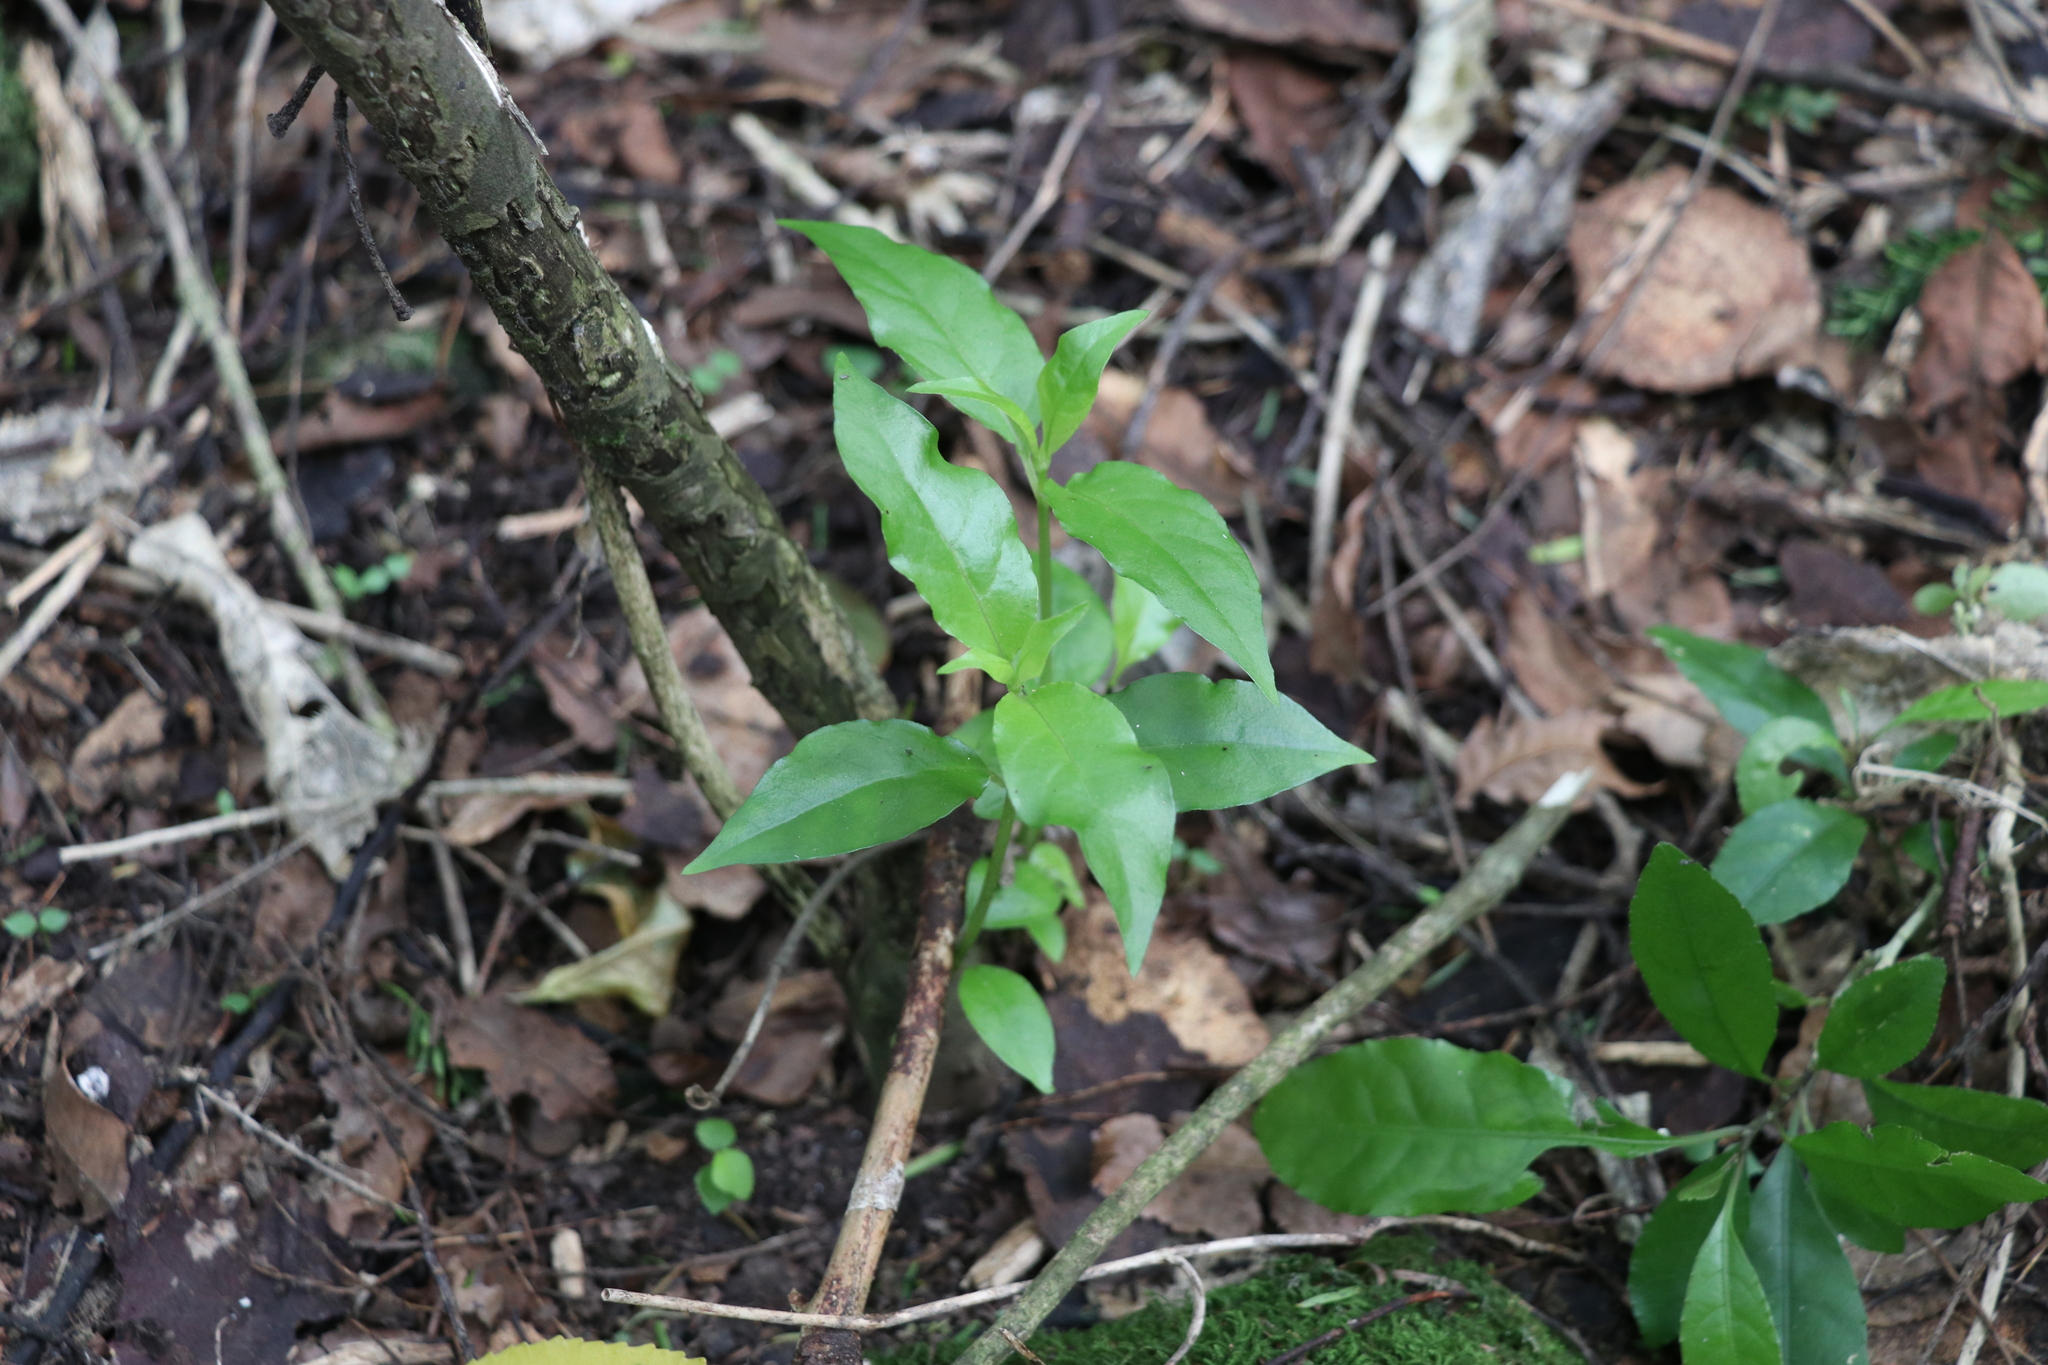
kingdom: Plantae
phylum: Tracheophyta
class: Magnoliopsida
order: Gentianales
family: Loganiaceae
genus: Geniostoma
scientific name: Geniostoma ligustrifolium
